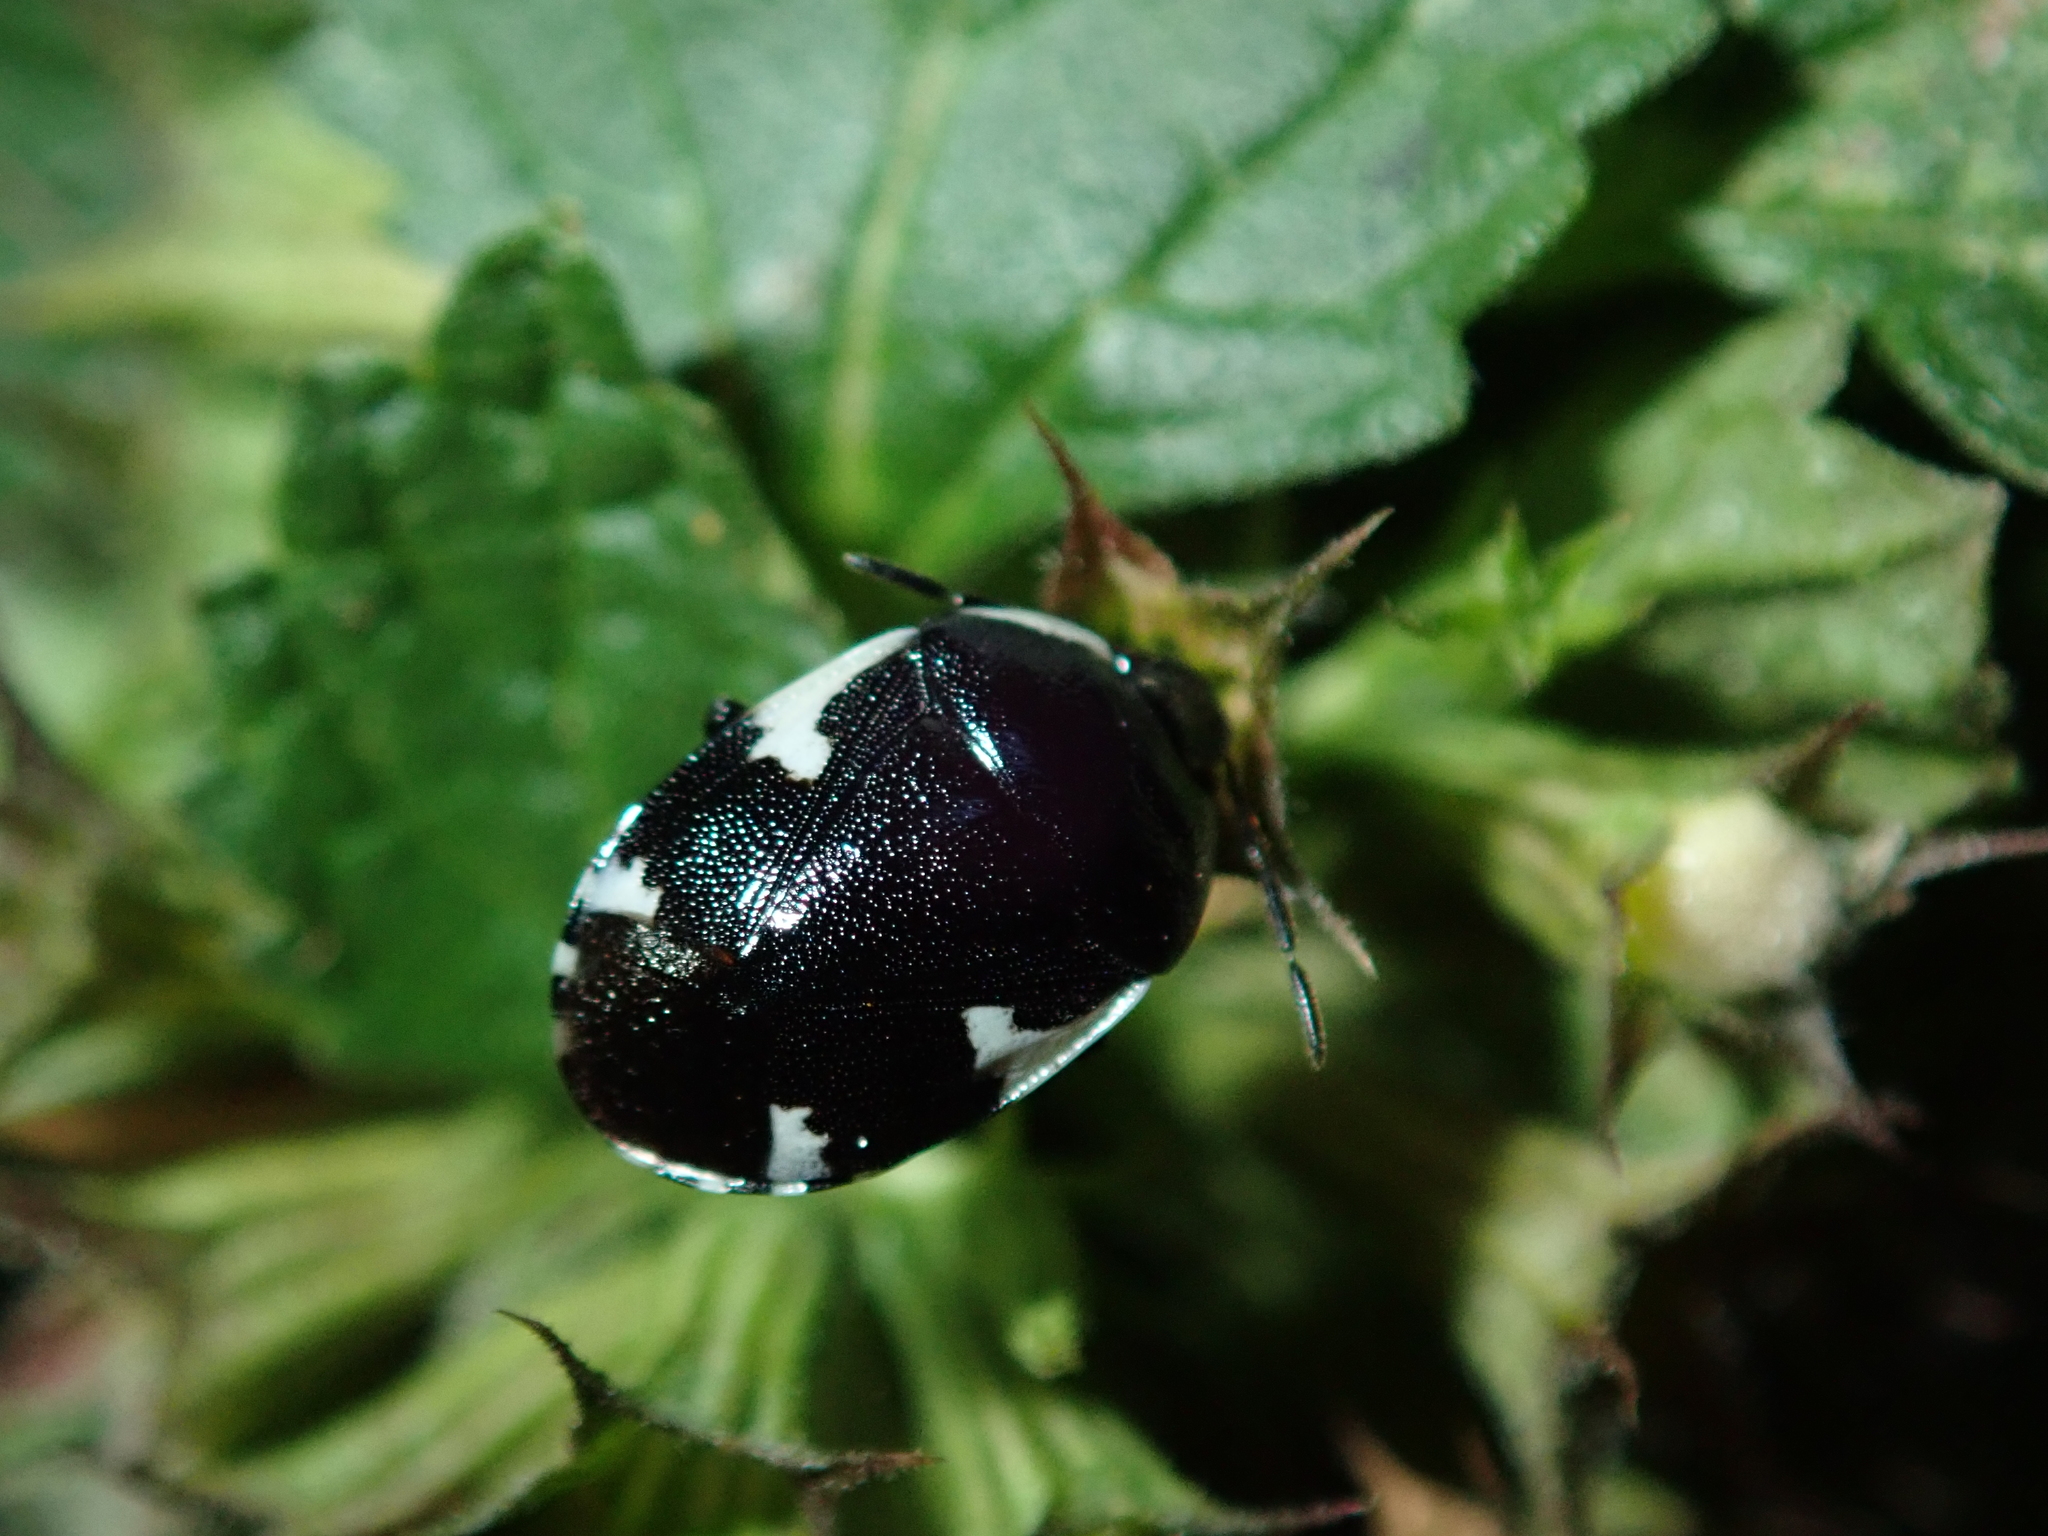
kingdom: Animalia
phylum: Arthropoda
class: Insecta
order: Hemiptera
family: Cydnidae
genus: Tritomegas
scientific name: Tritomegas sexmaculatus
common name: Rambur's pied shieldbug
